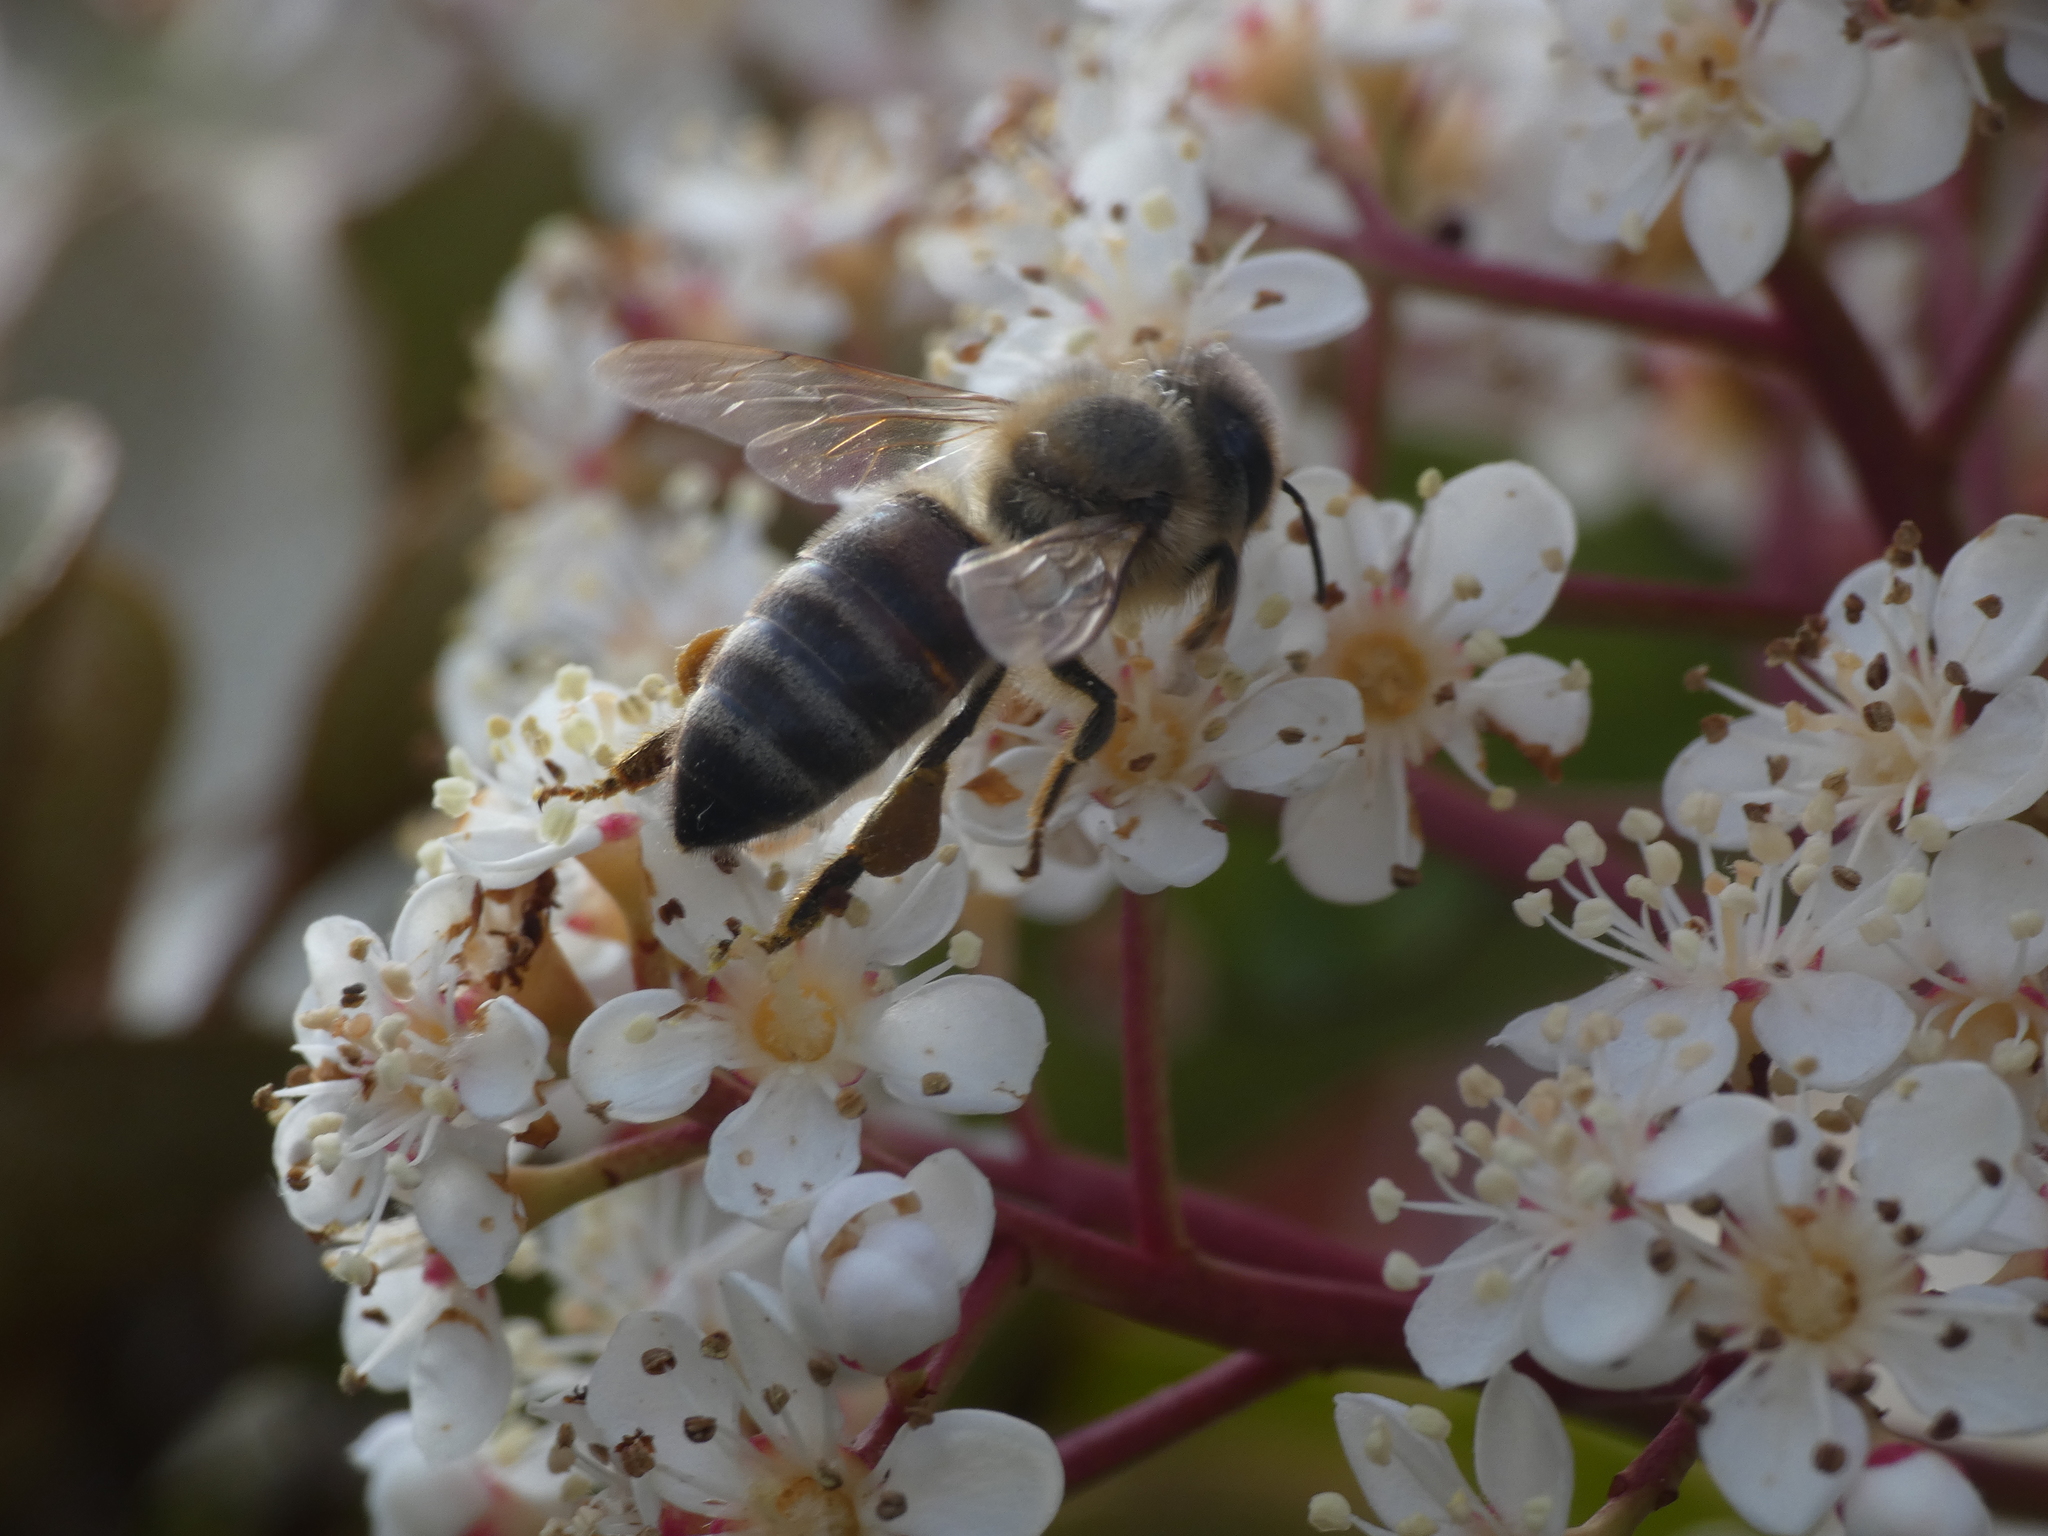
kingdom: Animalia
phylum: Arthropoda
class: Insecta
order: Hymenoptera
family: Apidae
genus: Apis
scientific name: Apis mellifera
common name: Honey bee
